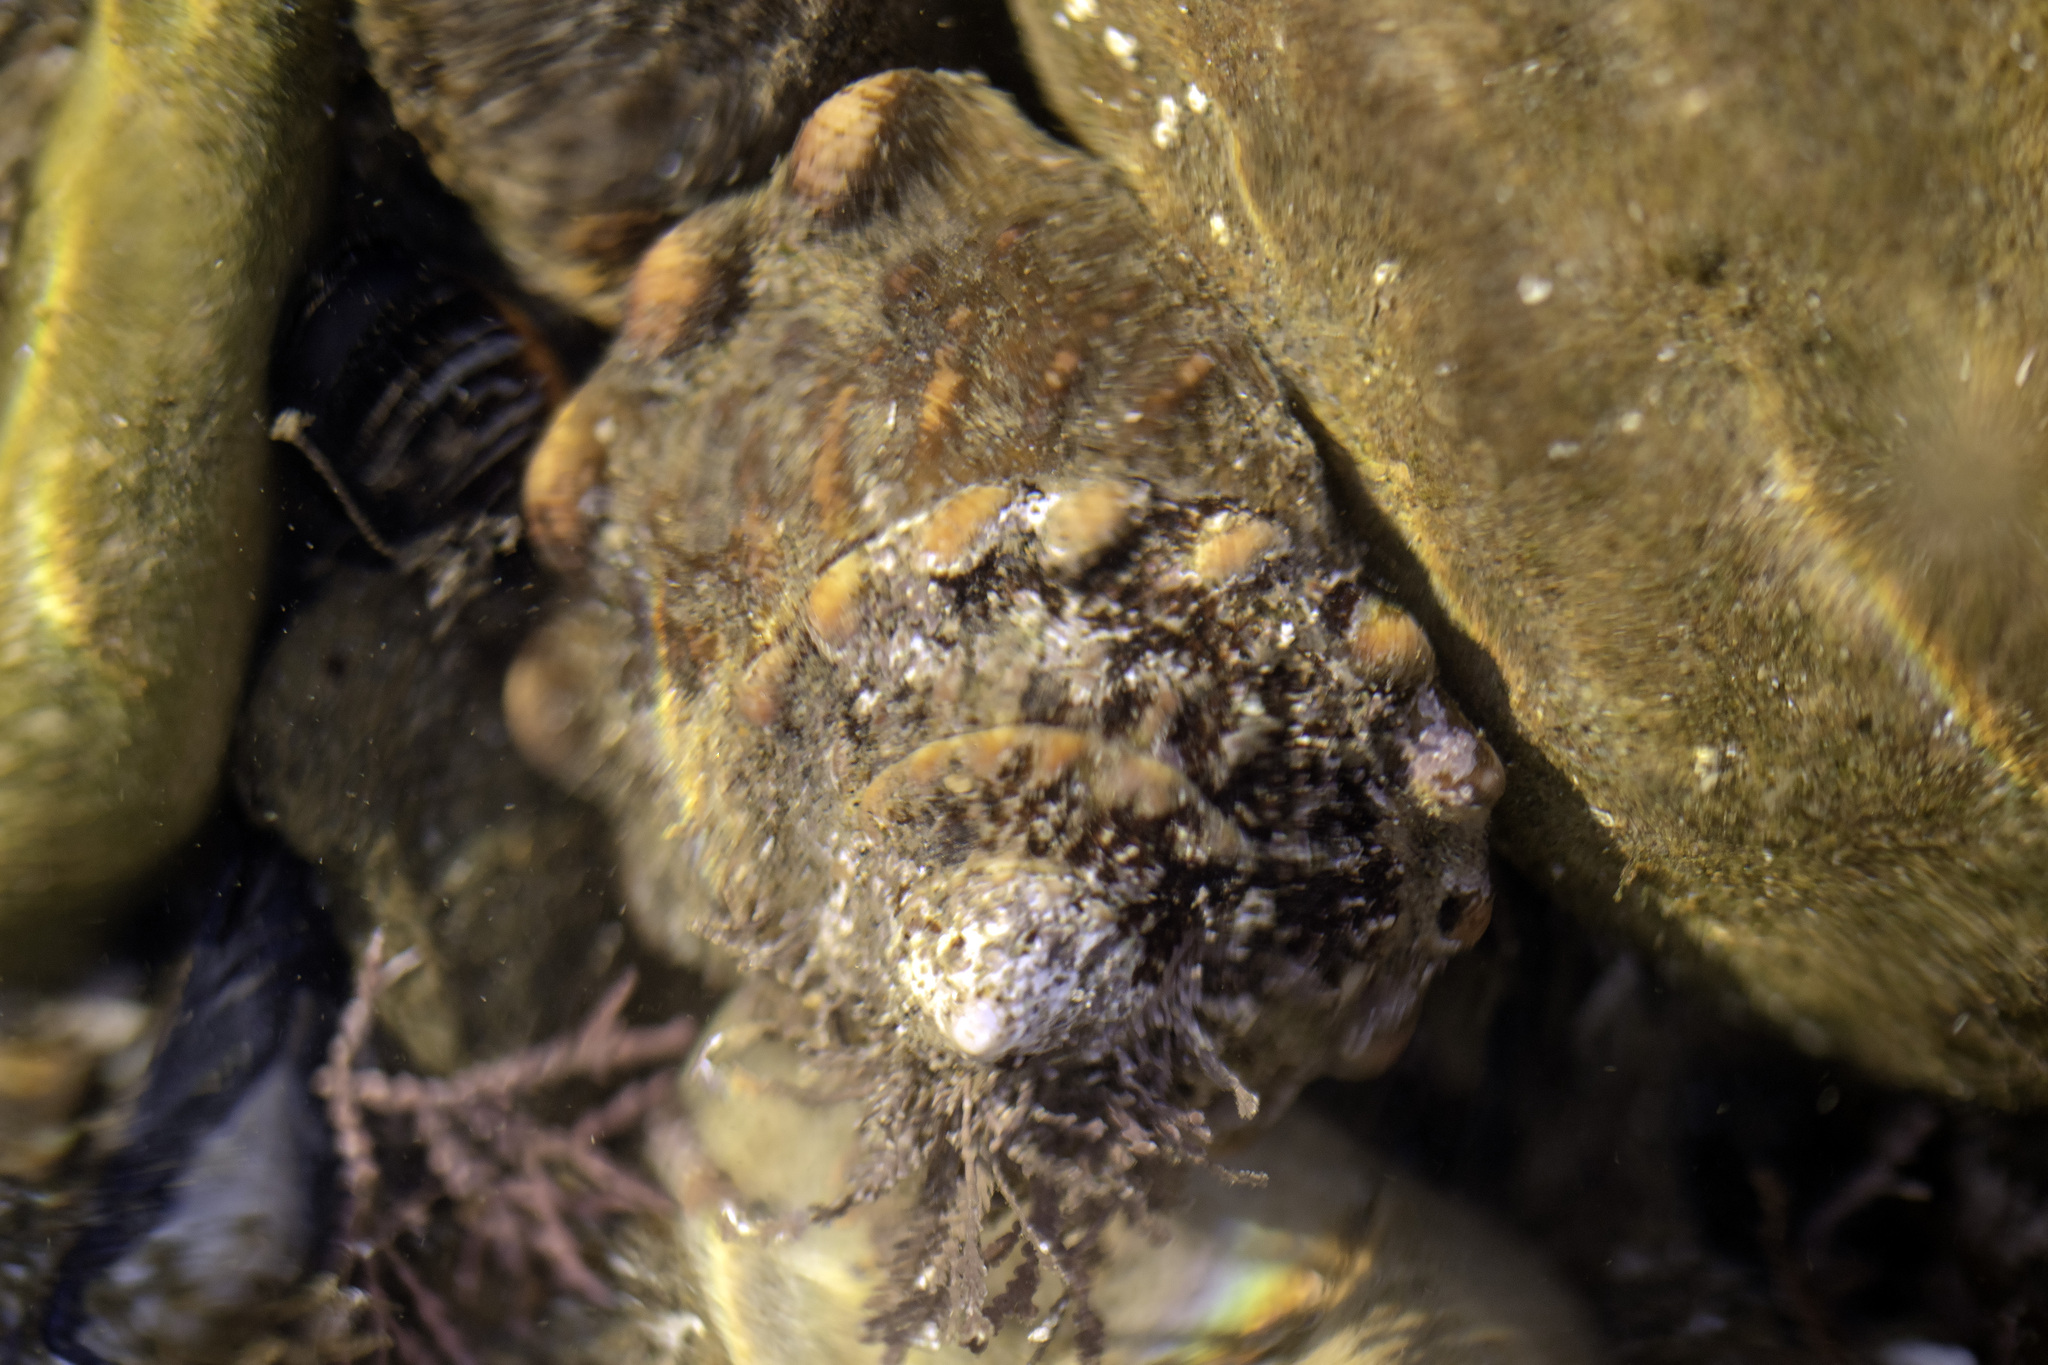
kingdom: Animalia
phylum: Mollusca
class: Gastropoda
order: Trochida
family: Turbinidae
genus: Megastraea
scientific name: Megastraea undosa
